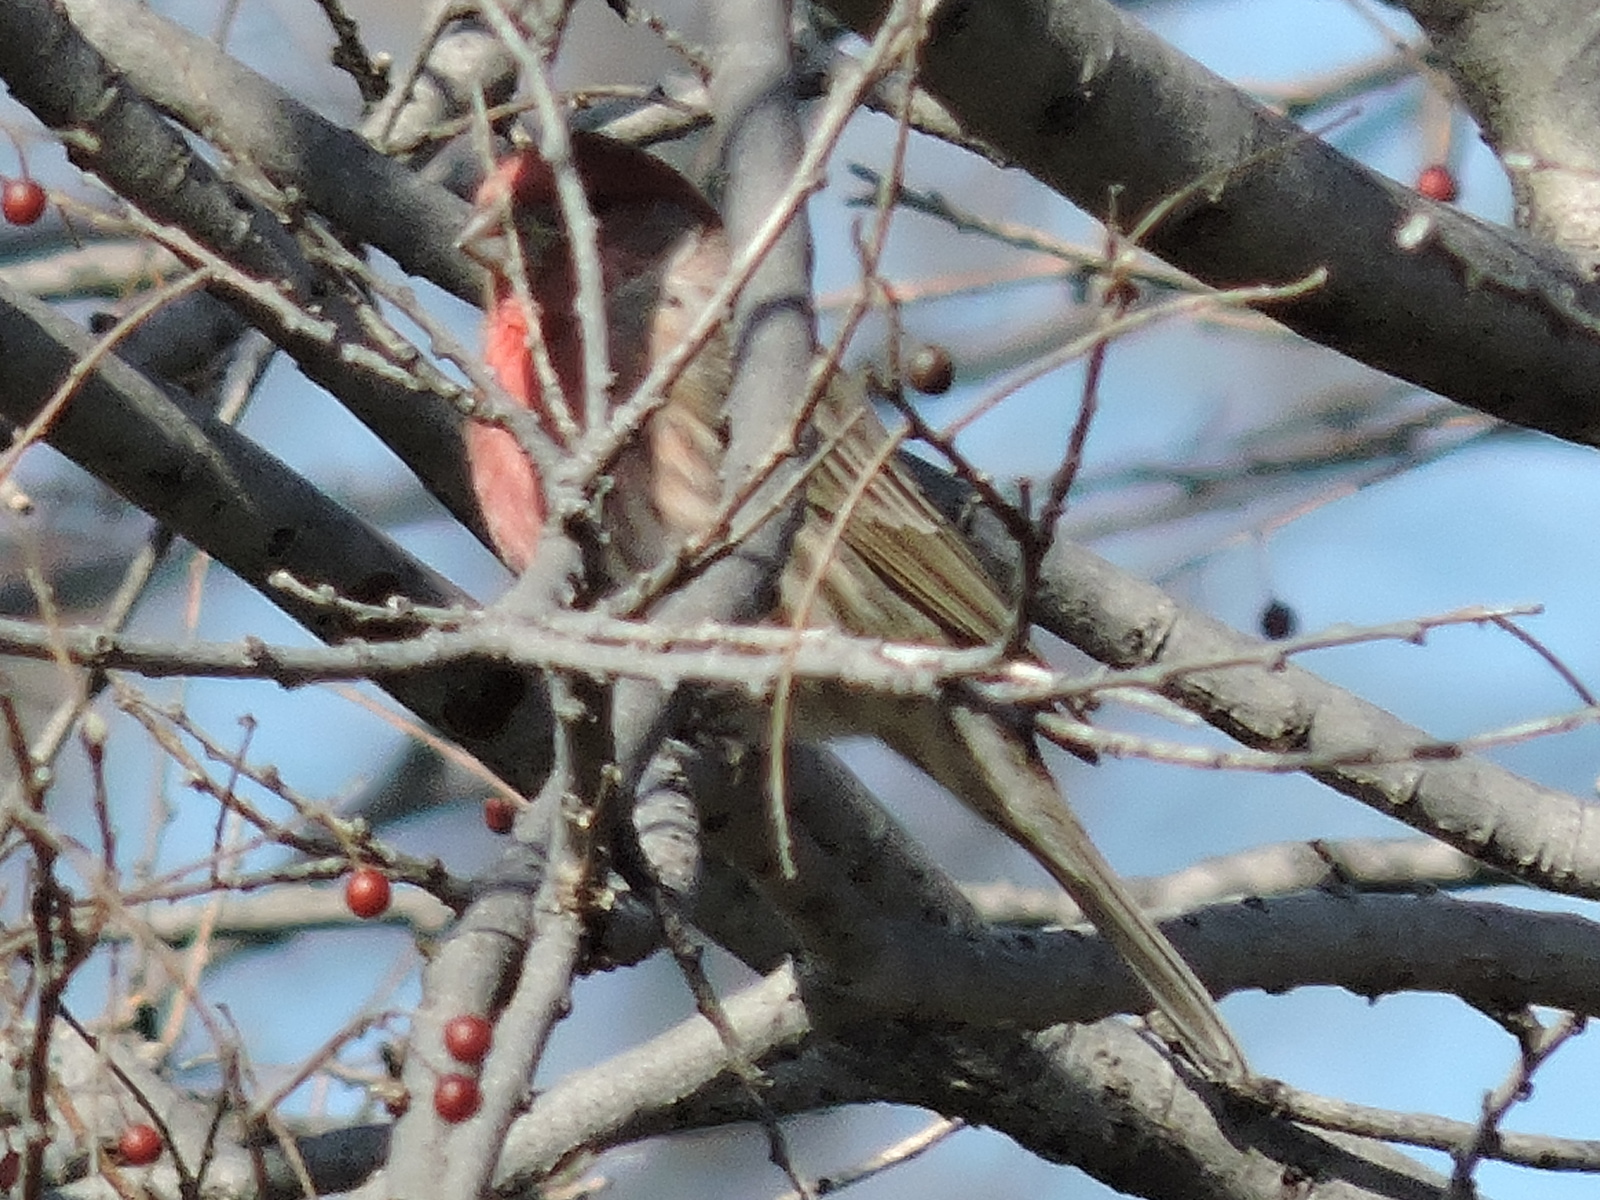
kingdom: Animalia
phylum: Chordata
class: Aves
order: Passeriformes
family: Fringillidae
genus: Haemorhous
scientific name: Haemorhous mexicanus
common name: House finch
